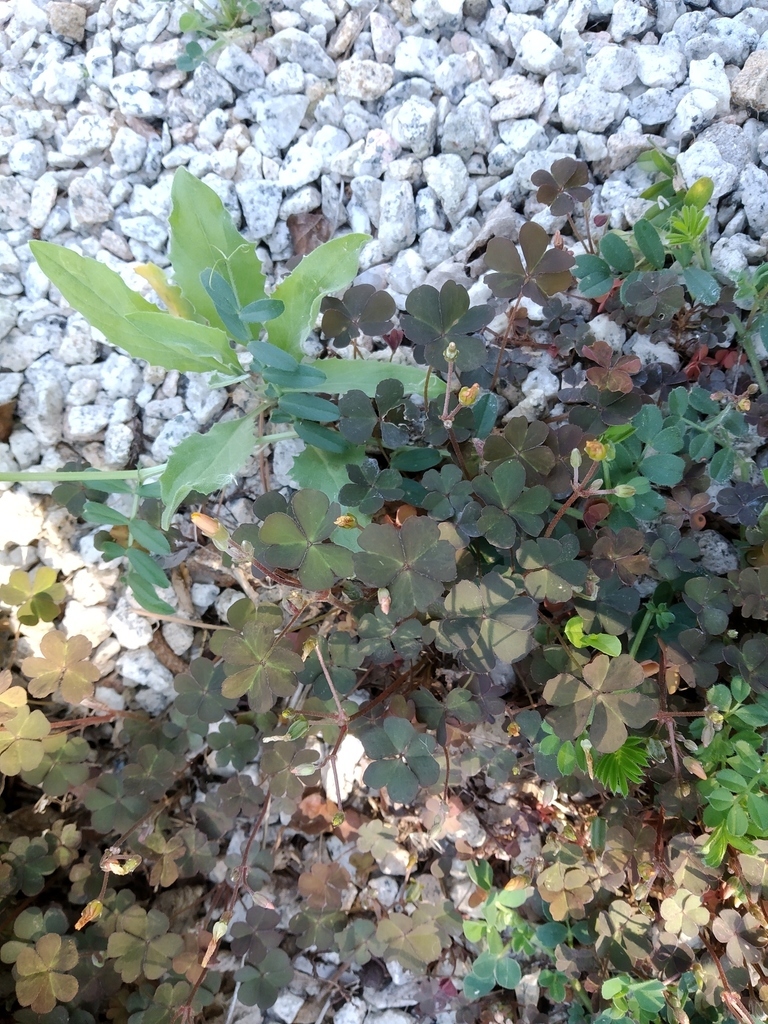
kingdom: Plantae
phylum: Tracheophyta
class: Magnoliopsida
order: Oxalidales
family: Oxalidaceae
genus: Oxalis
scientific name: Oxalis corniculata
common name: Procumbent yellow-sorrel
